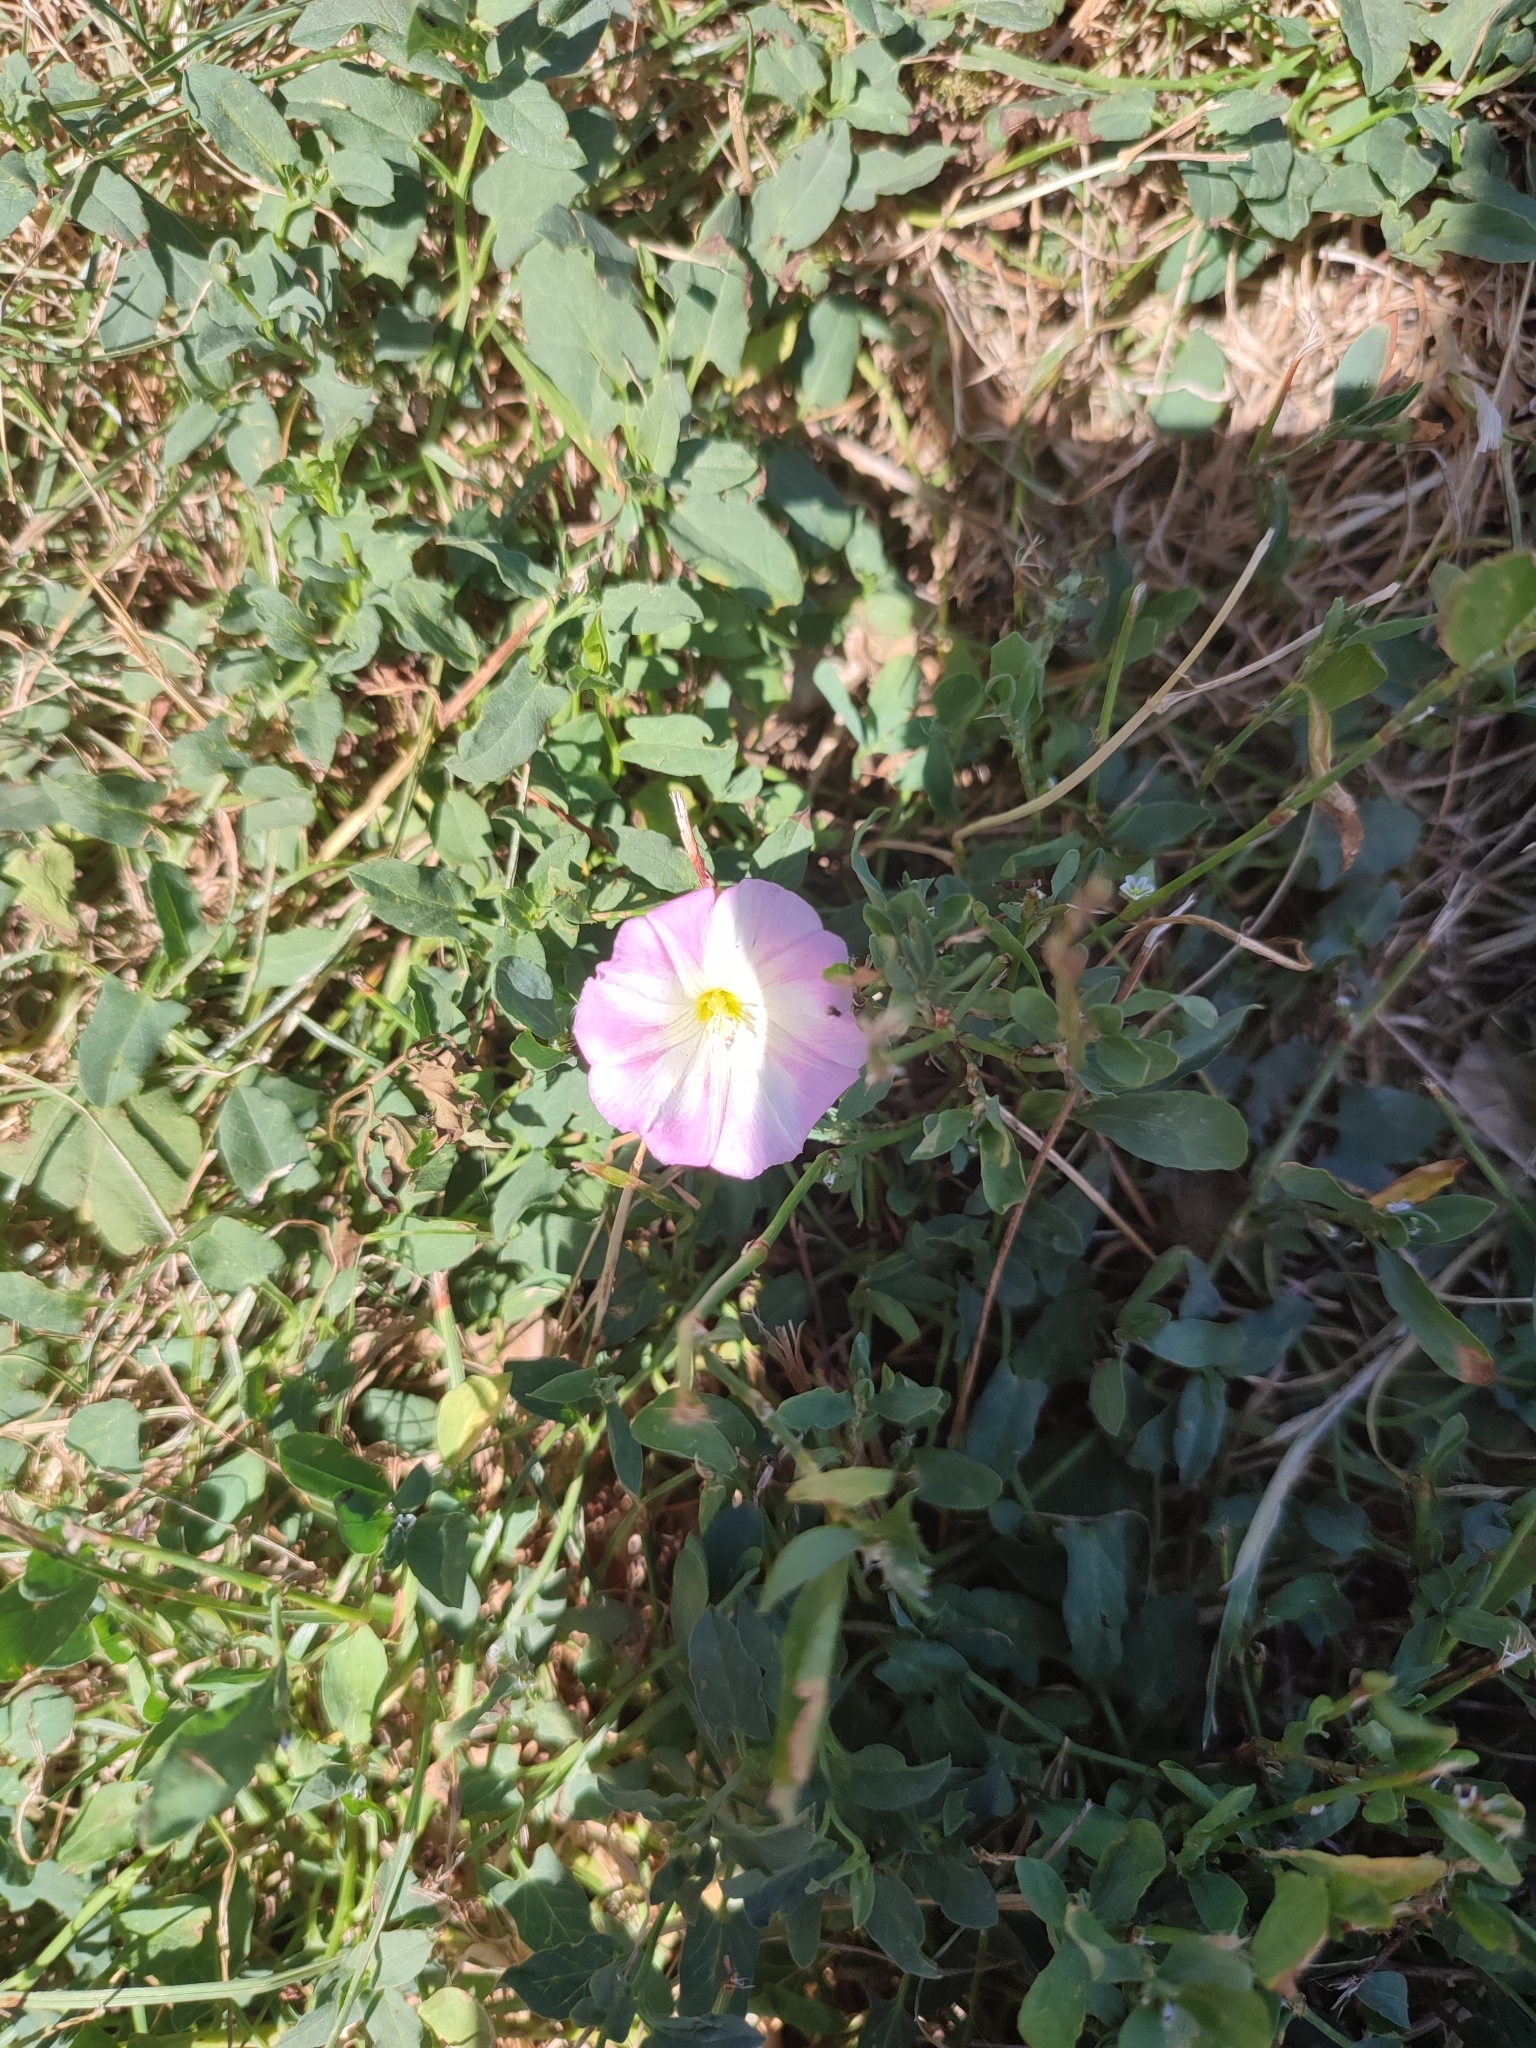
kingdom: Plantae
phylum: Tracheophyta
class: Magnoliopsida
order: Solanales
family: Convolvulaceae
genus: Convolvulus
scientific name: Convolvulus arvensis
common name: Field bindweed
